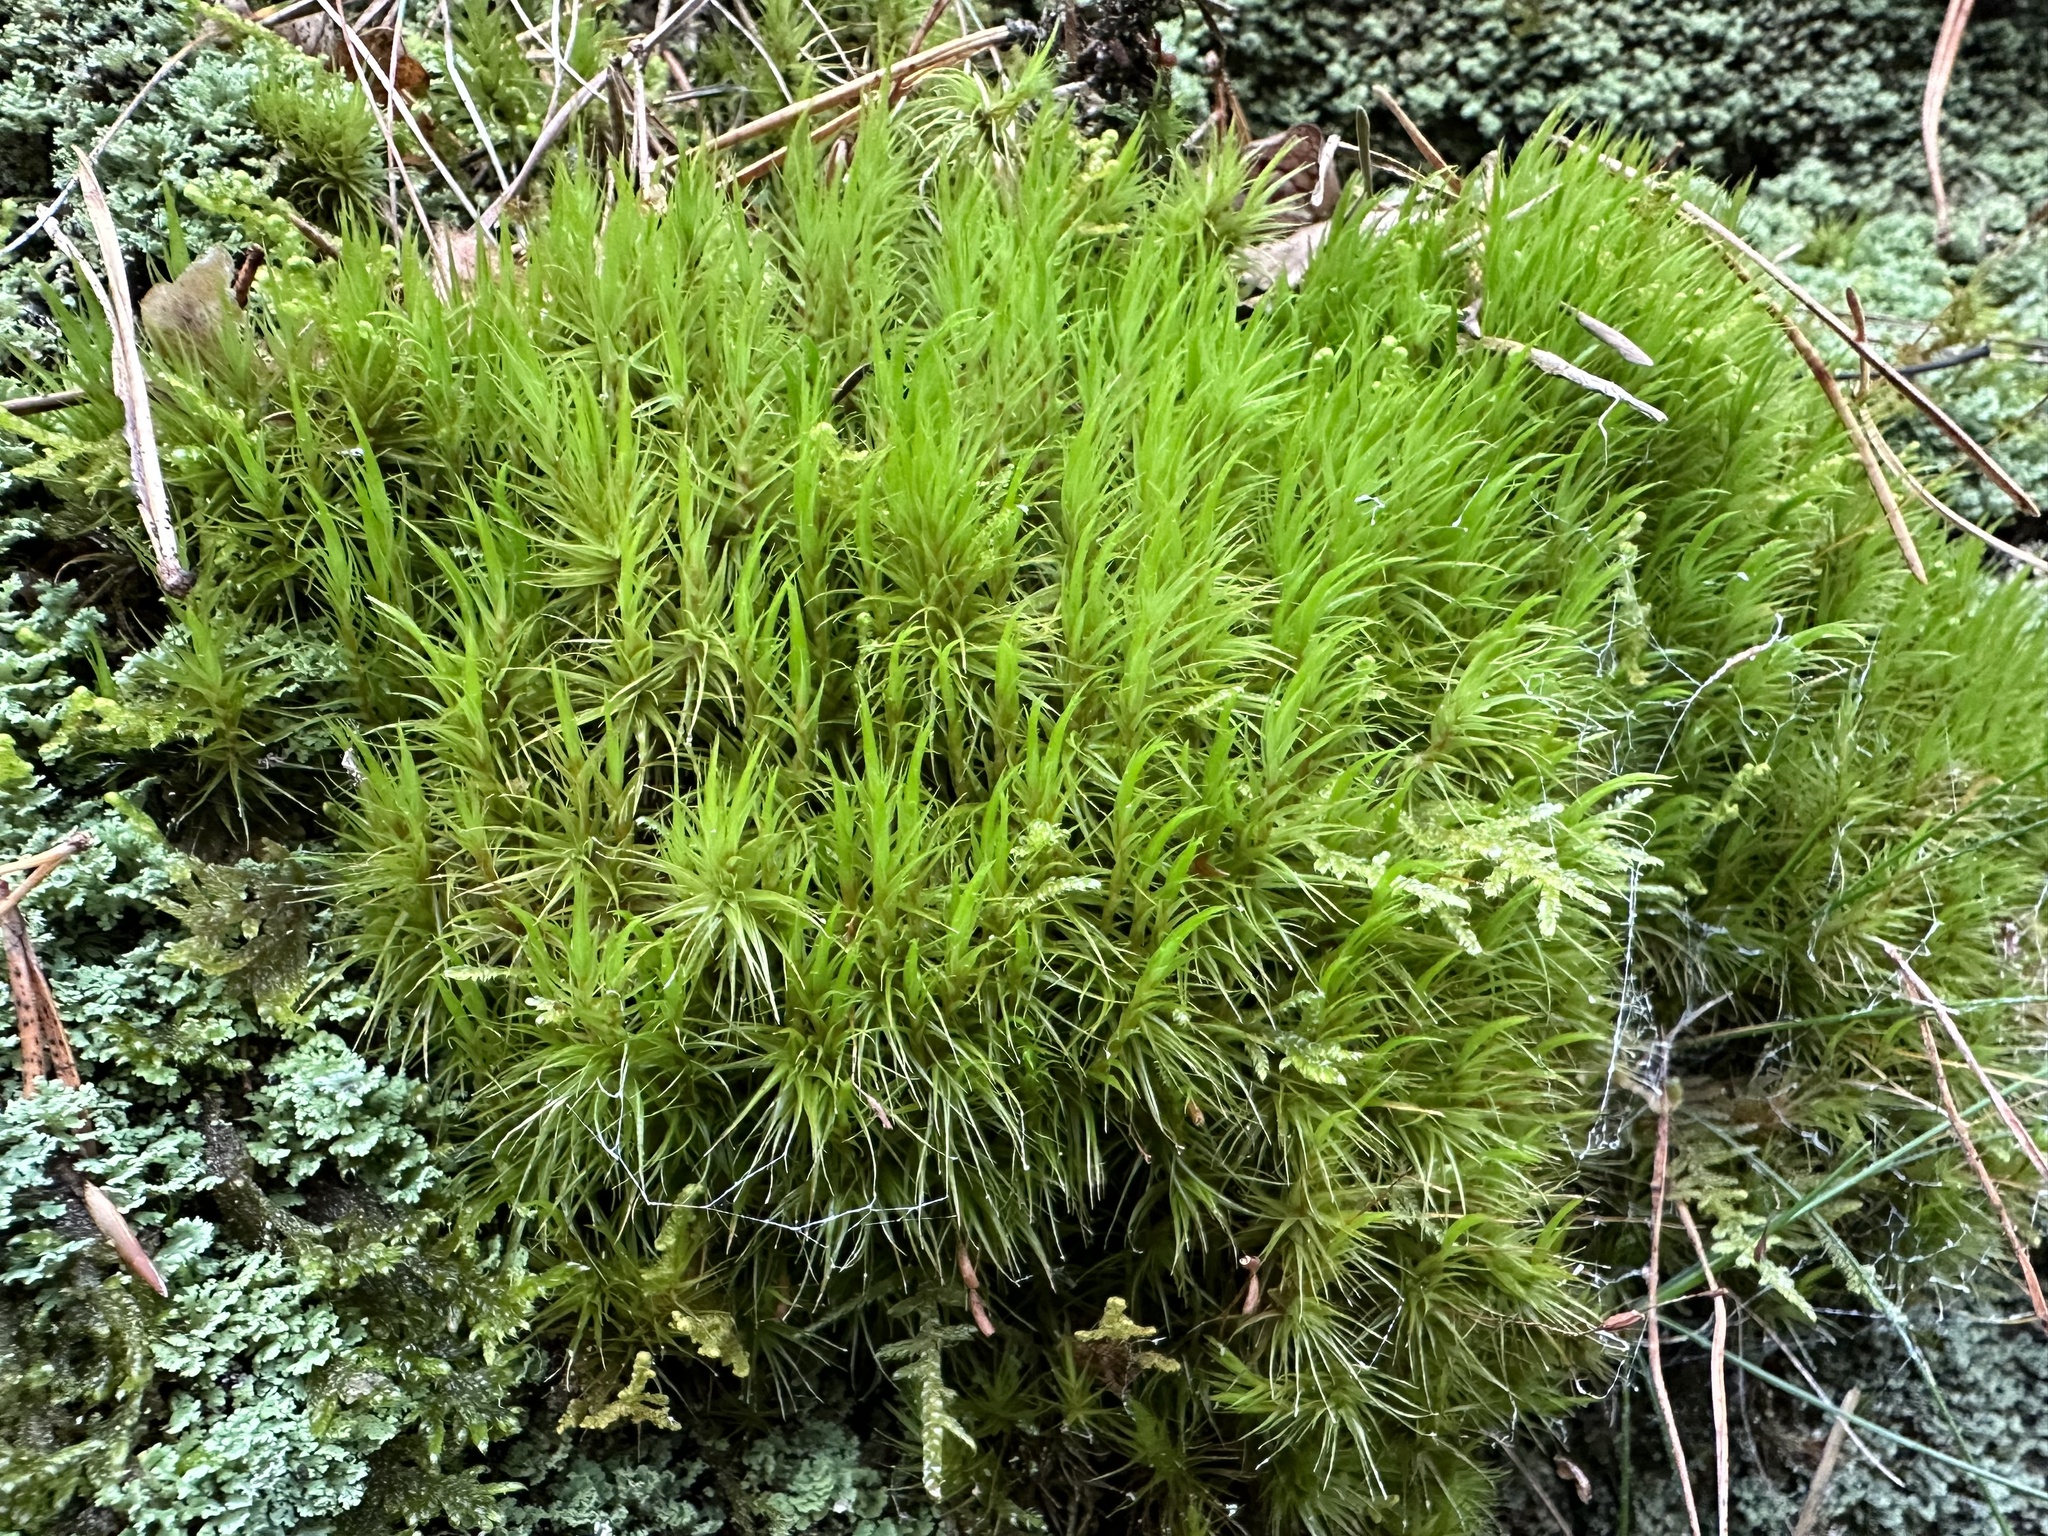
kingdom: Plantae
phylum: Bryophyta
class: Bryopsida
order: Dicranales
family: Dicranaceae
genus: Dicranum
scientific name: Dicranum scoparium
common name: Broom fork-moss
